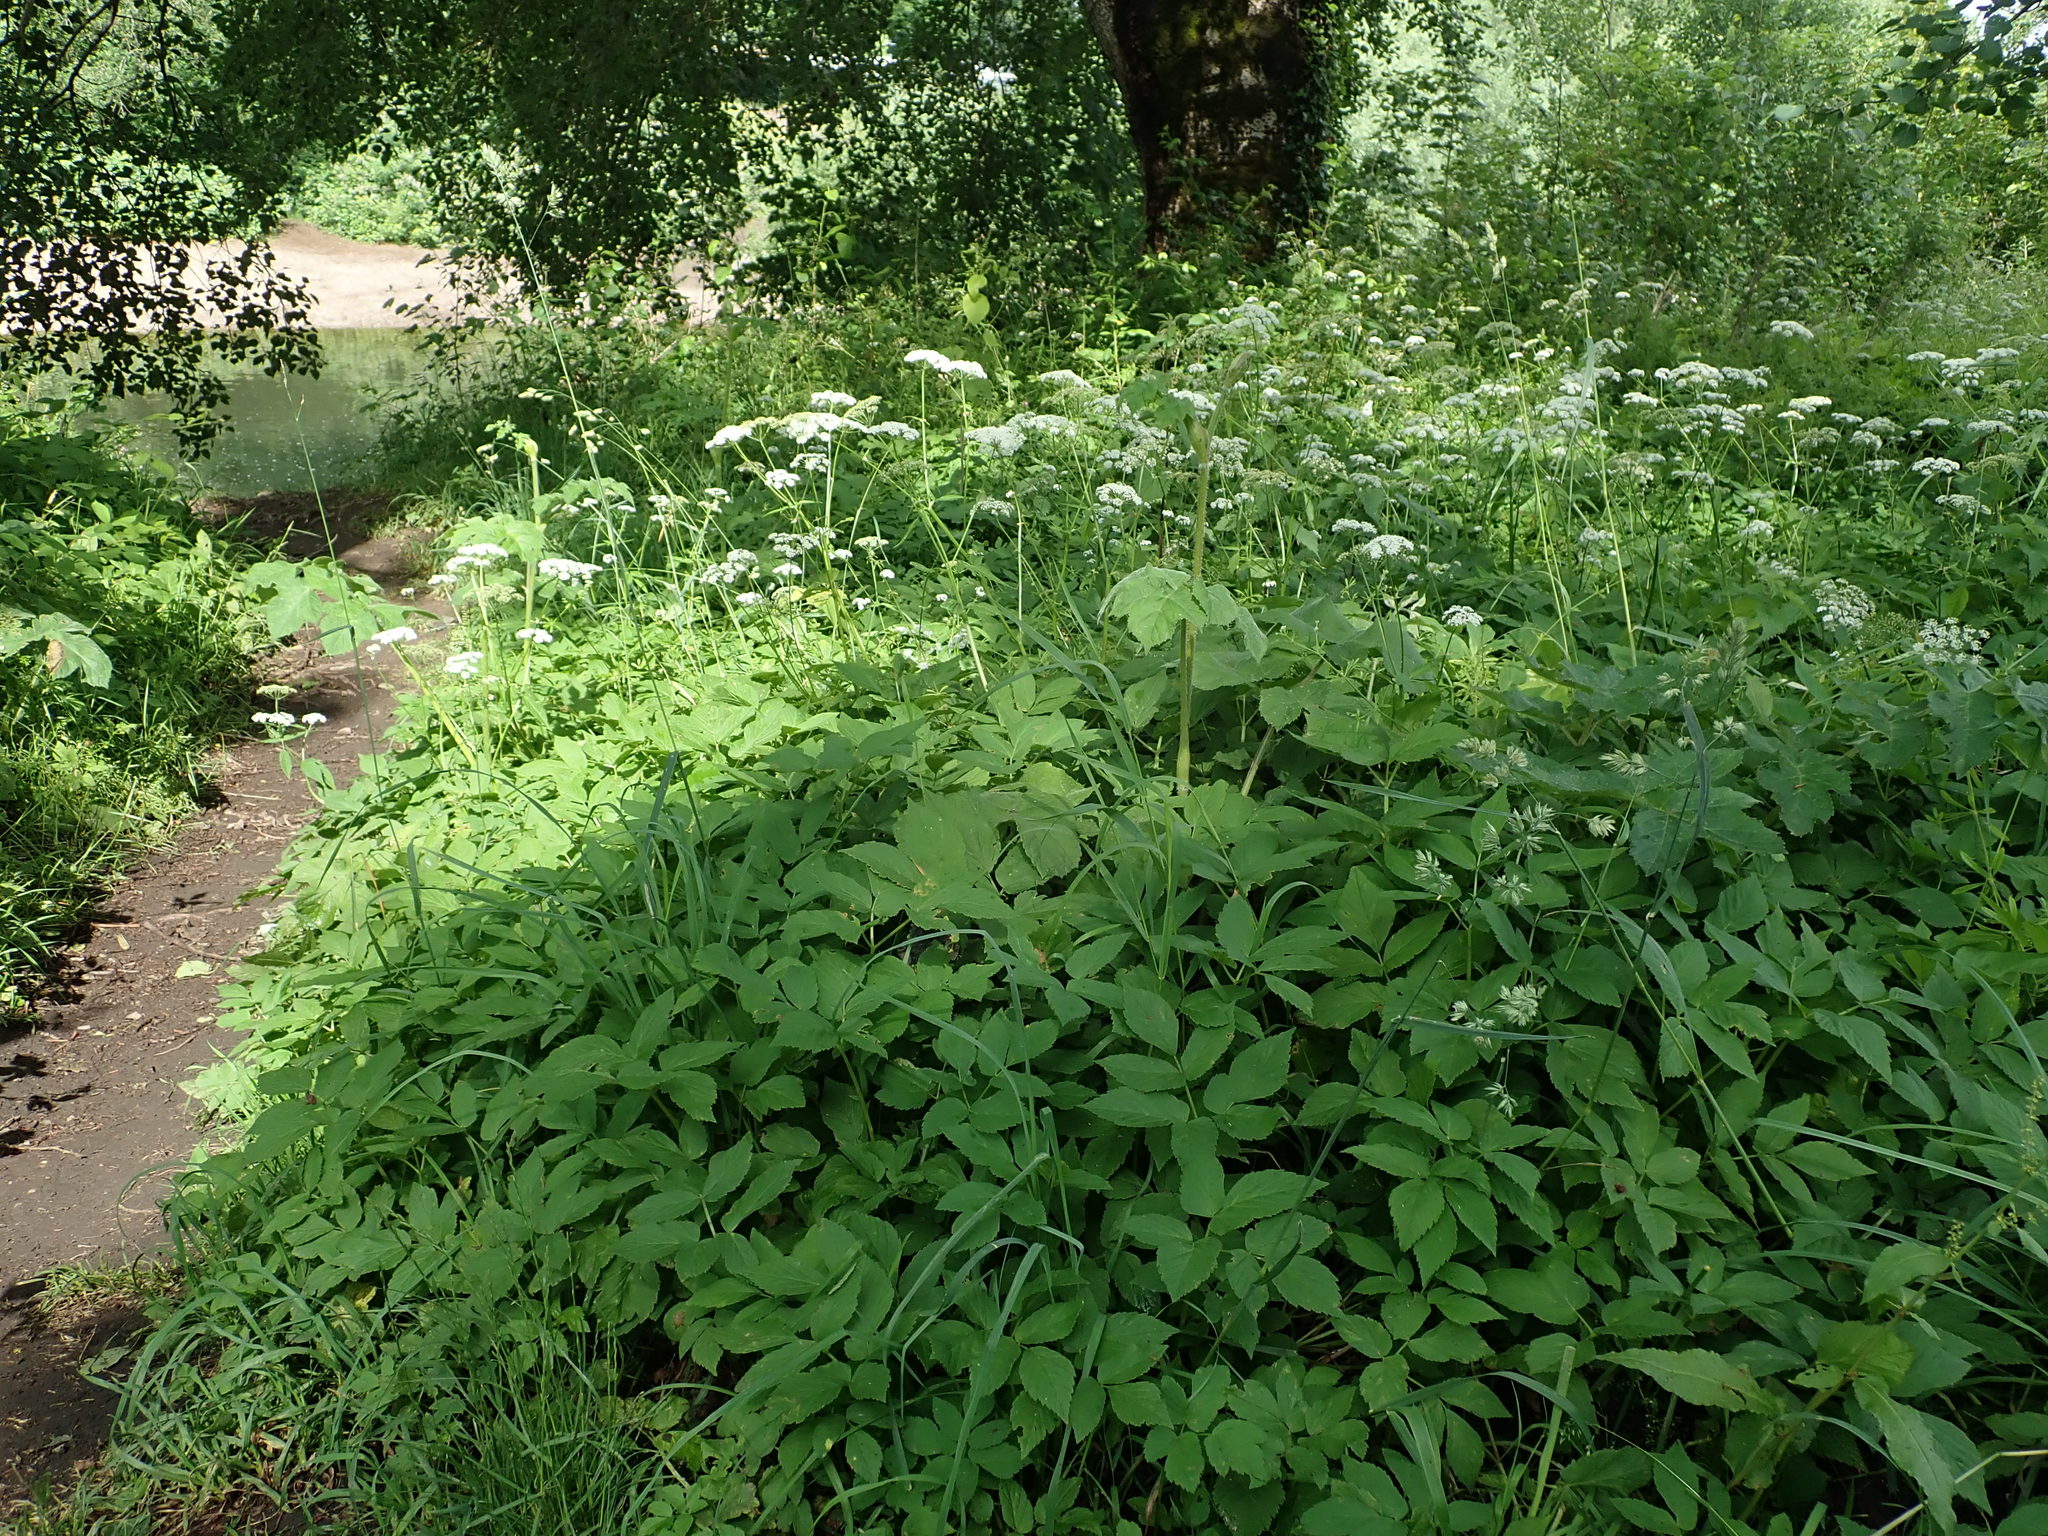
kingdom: Plantae
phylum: Tracheophyta
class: Magnoliopsida
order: Apiales
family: Apiaceae
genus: Aegopodium
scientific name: Aegopodium podagraria
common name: Ground-elder
